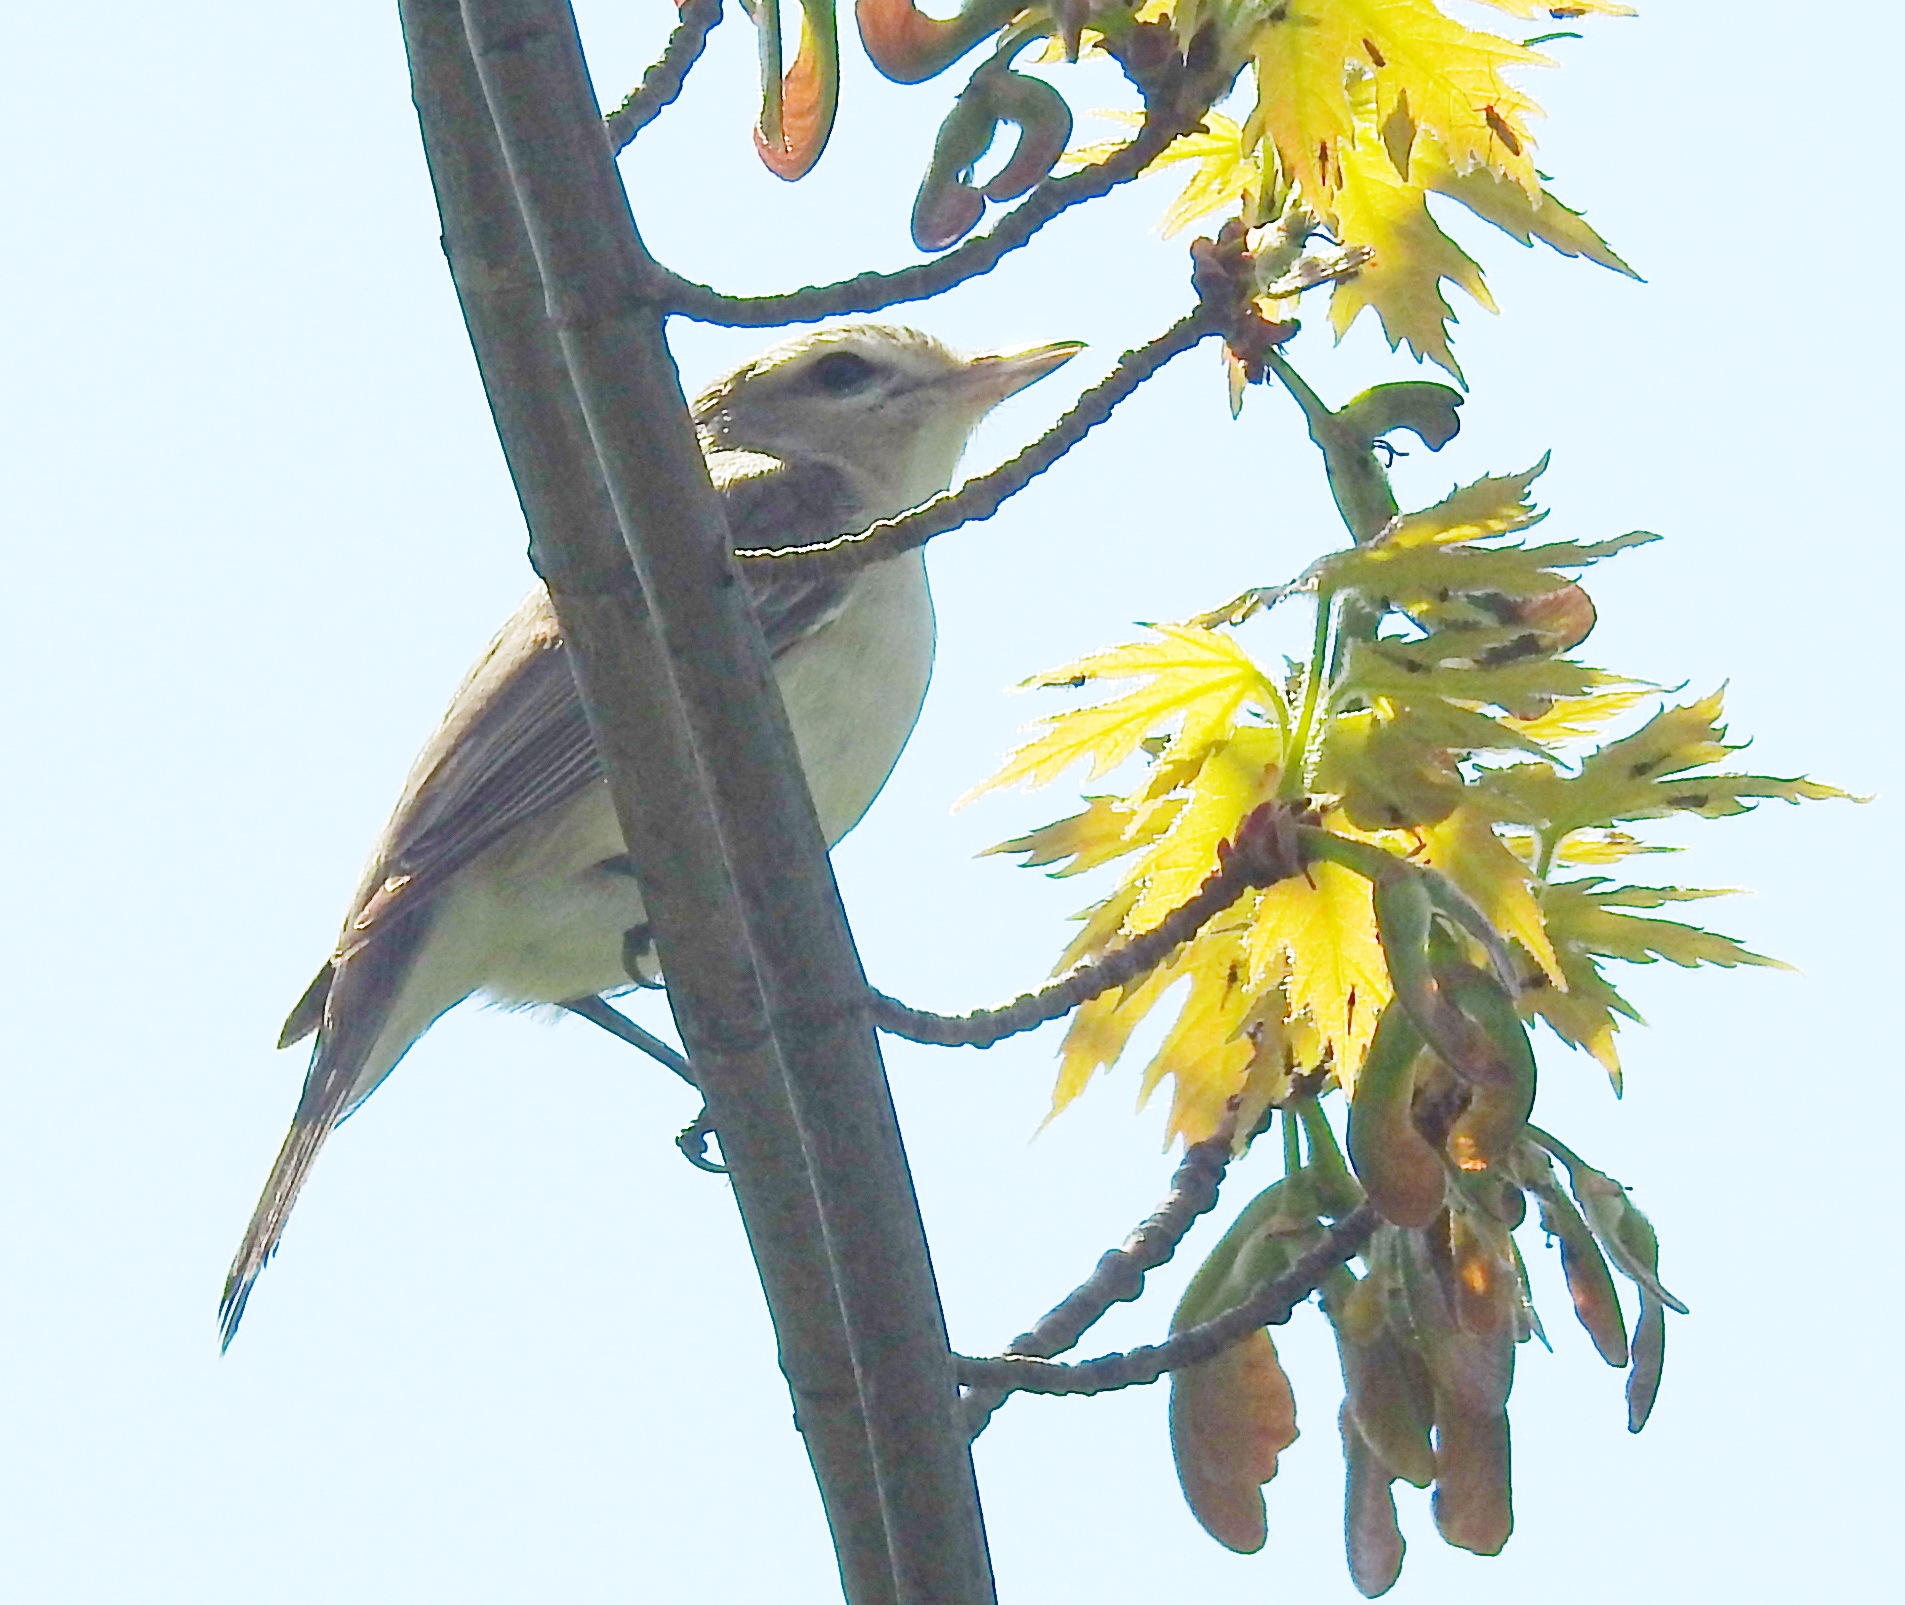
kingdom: Animalia
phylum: Chordata
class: Aves
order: Passeriformes
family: Vireonidae
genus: Vireo
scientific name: Vireo gilvus
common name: Warbling vireo
